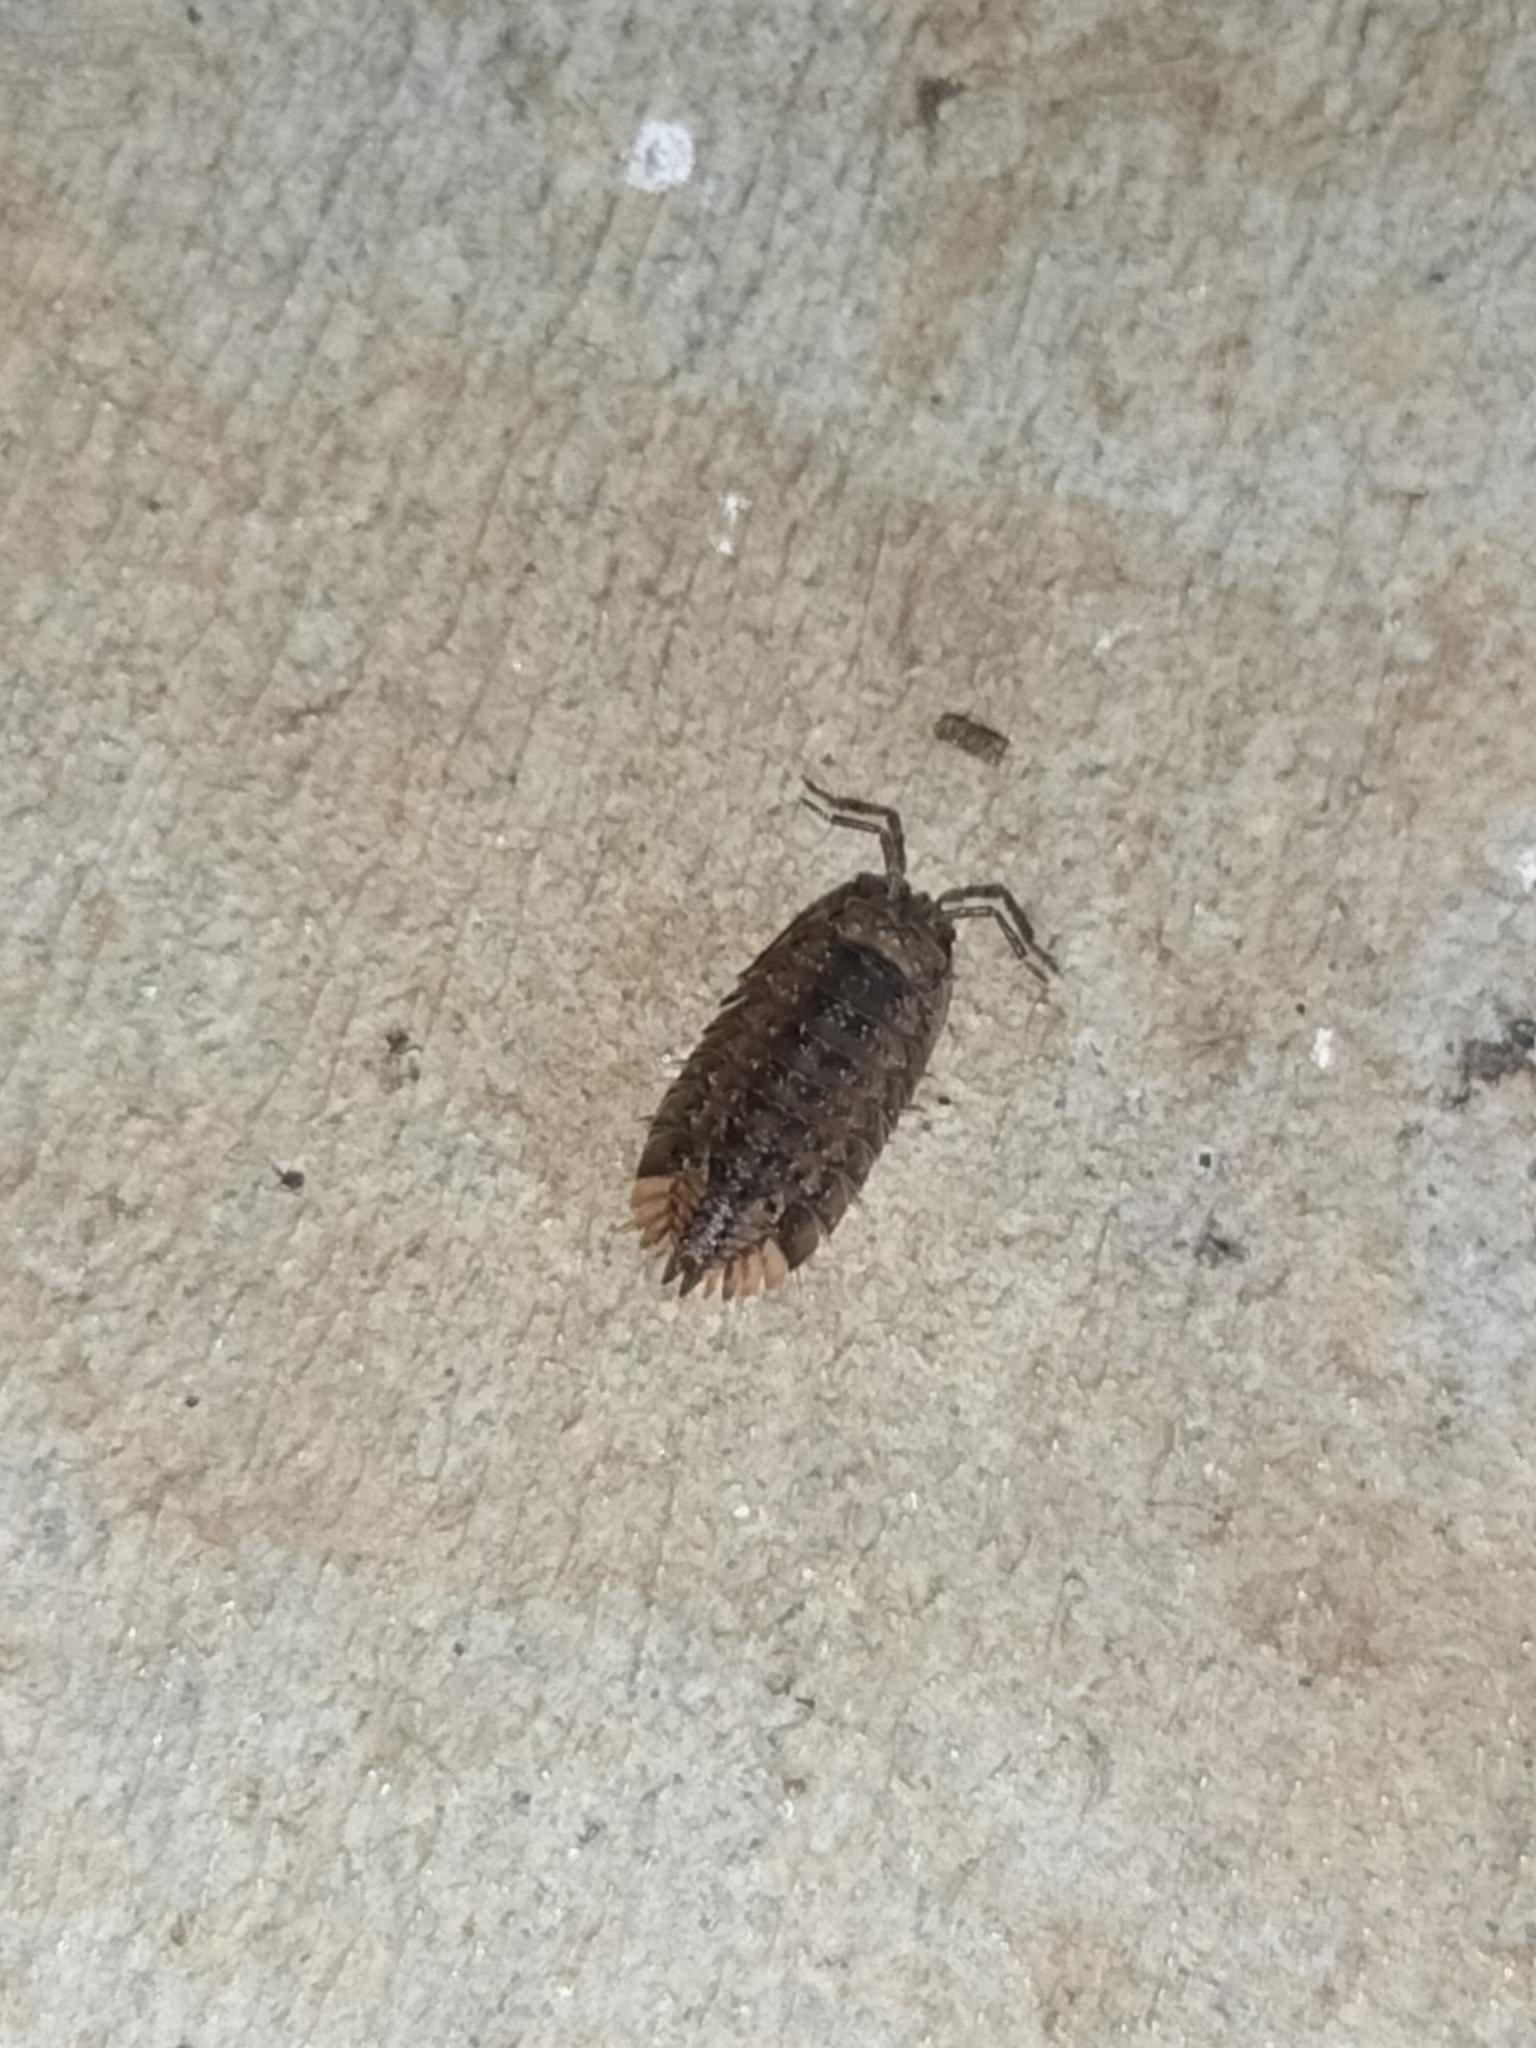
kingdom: Animalia
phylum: Arthropoda
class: Malacostraca
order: Isopoda
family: Armadillidae
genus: Schismadillo
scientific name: Schismadillo spinosus
